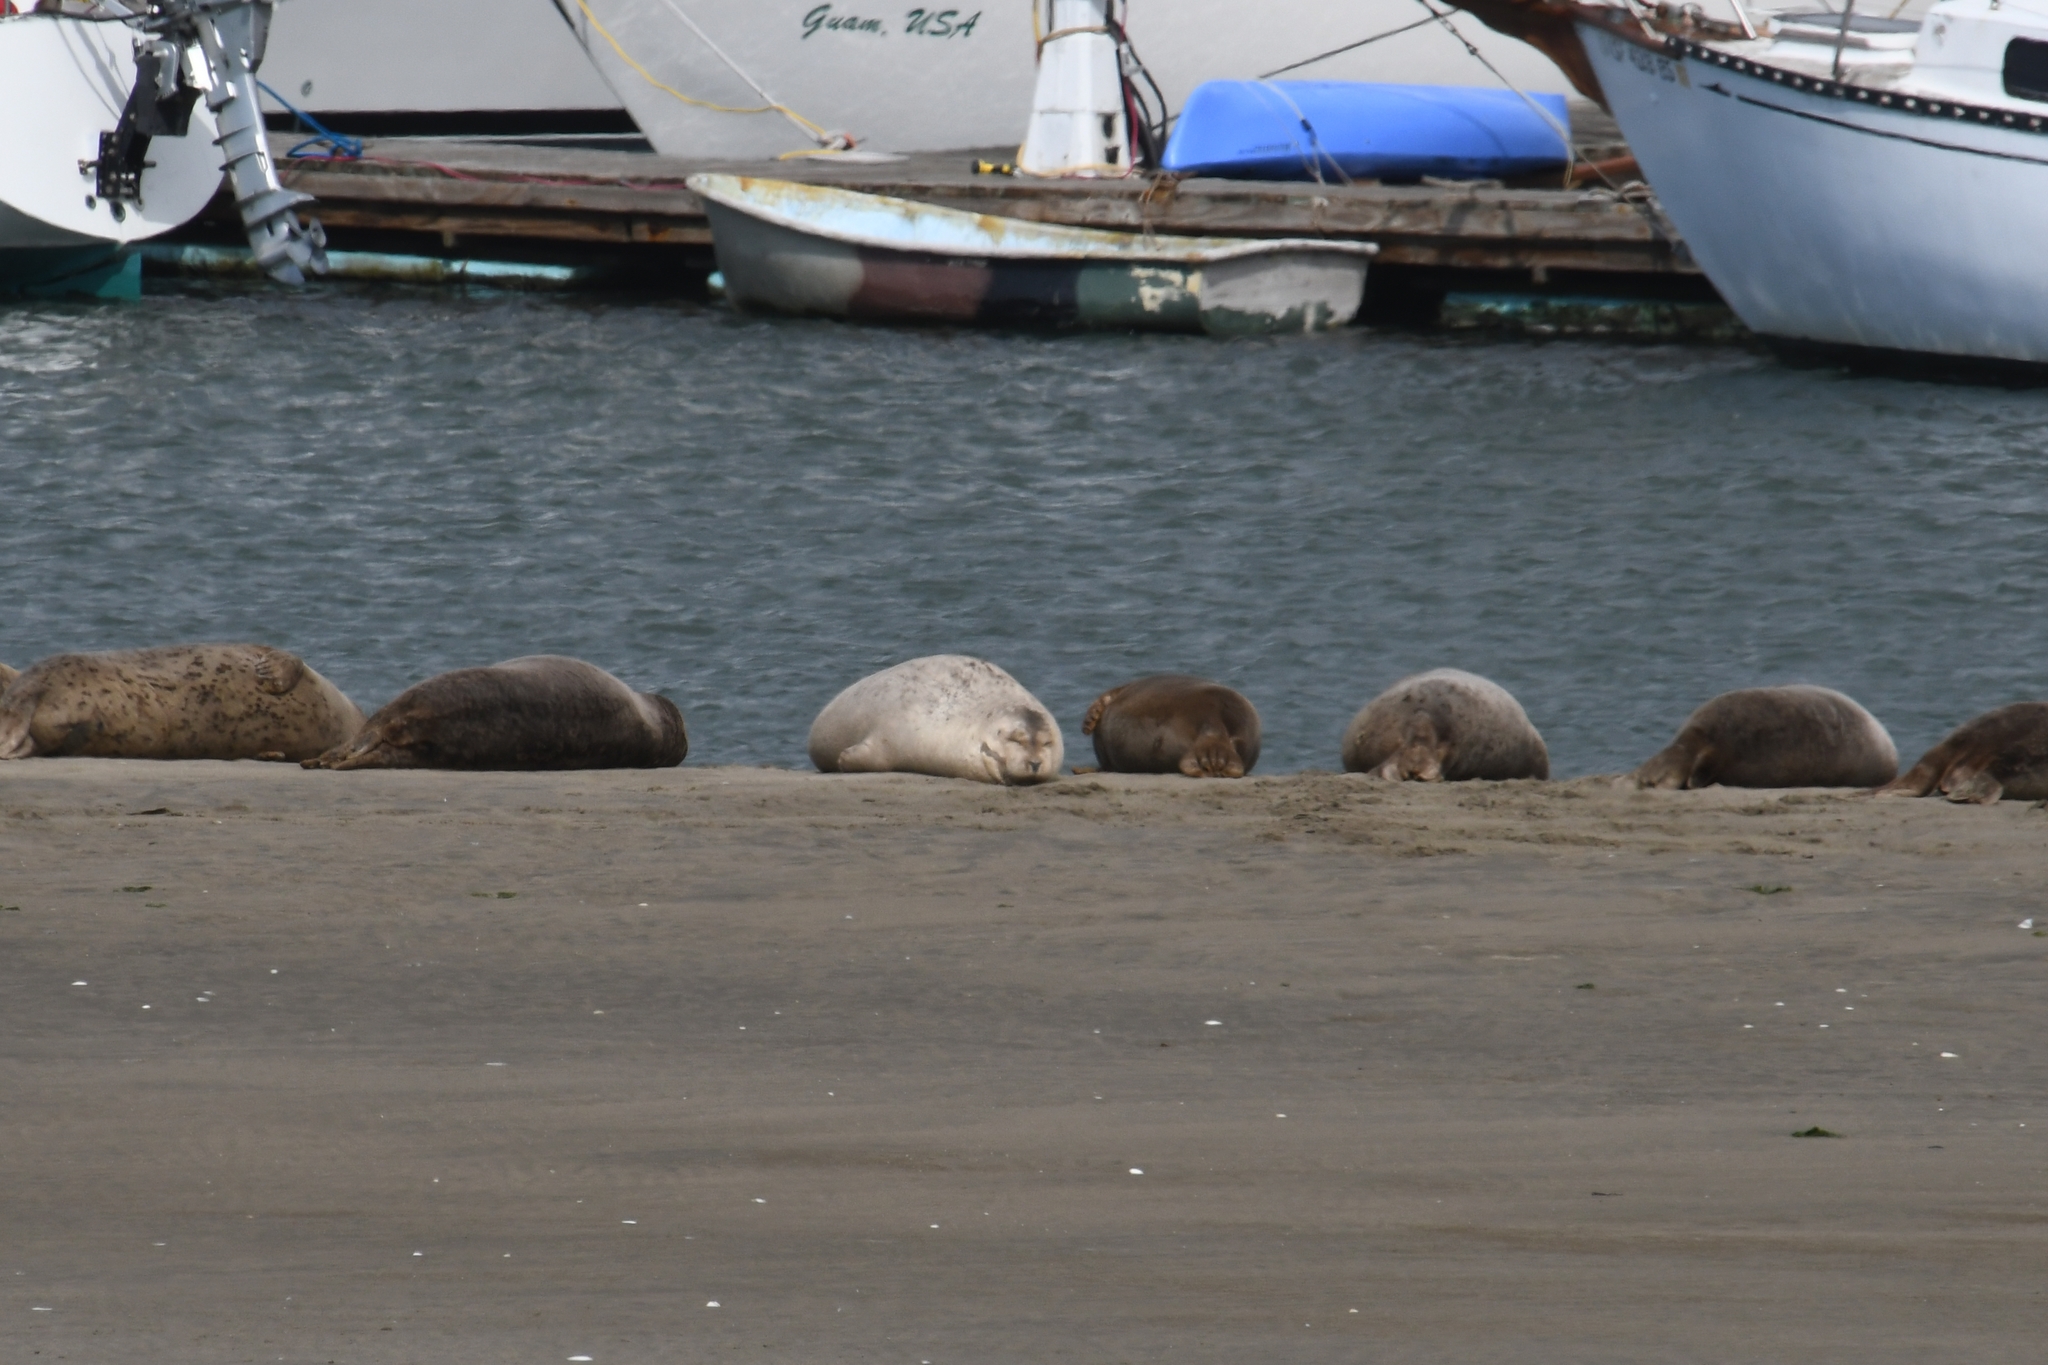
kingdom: Animalia
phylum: Chordata
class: Mammalia
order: Carnivora
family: Phocidae
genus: Phoca
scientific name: Phoca vitulina
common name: Harbor seal
